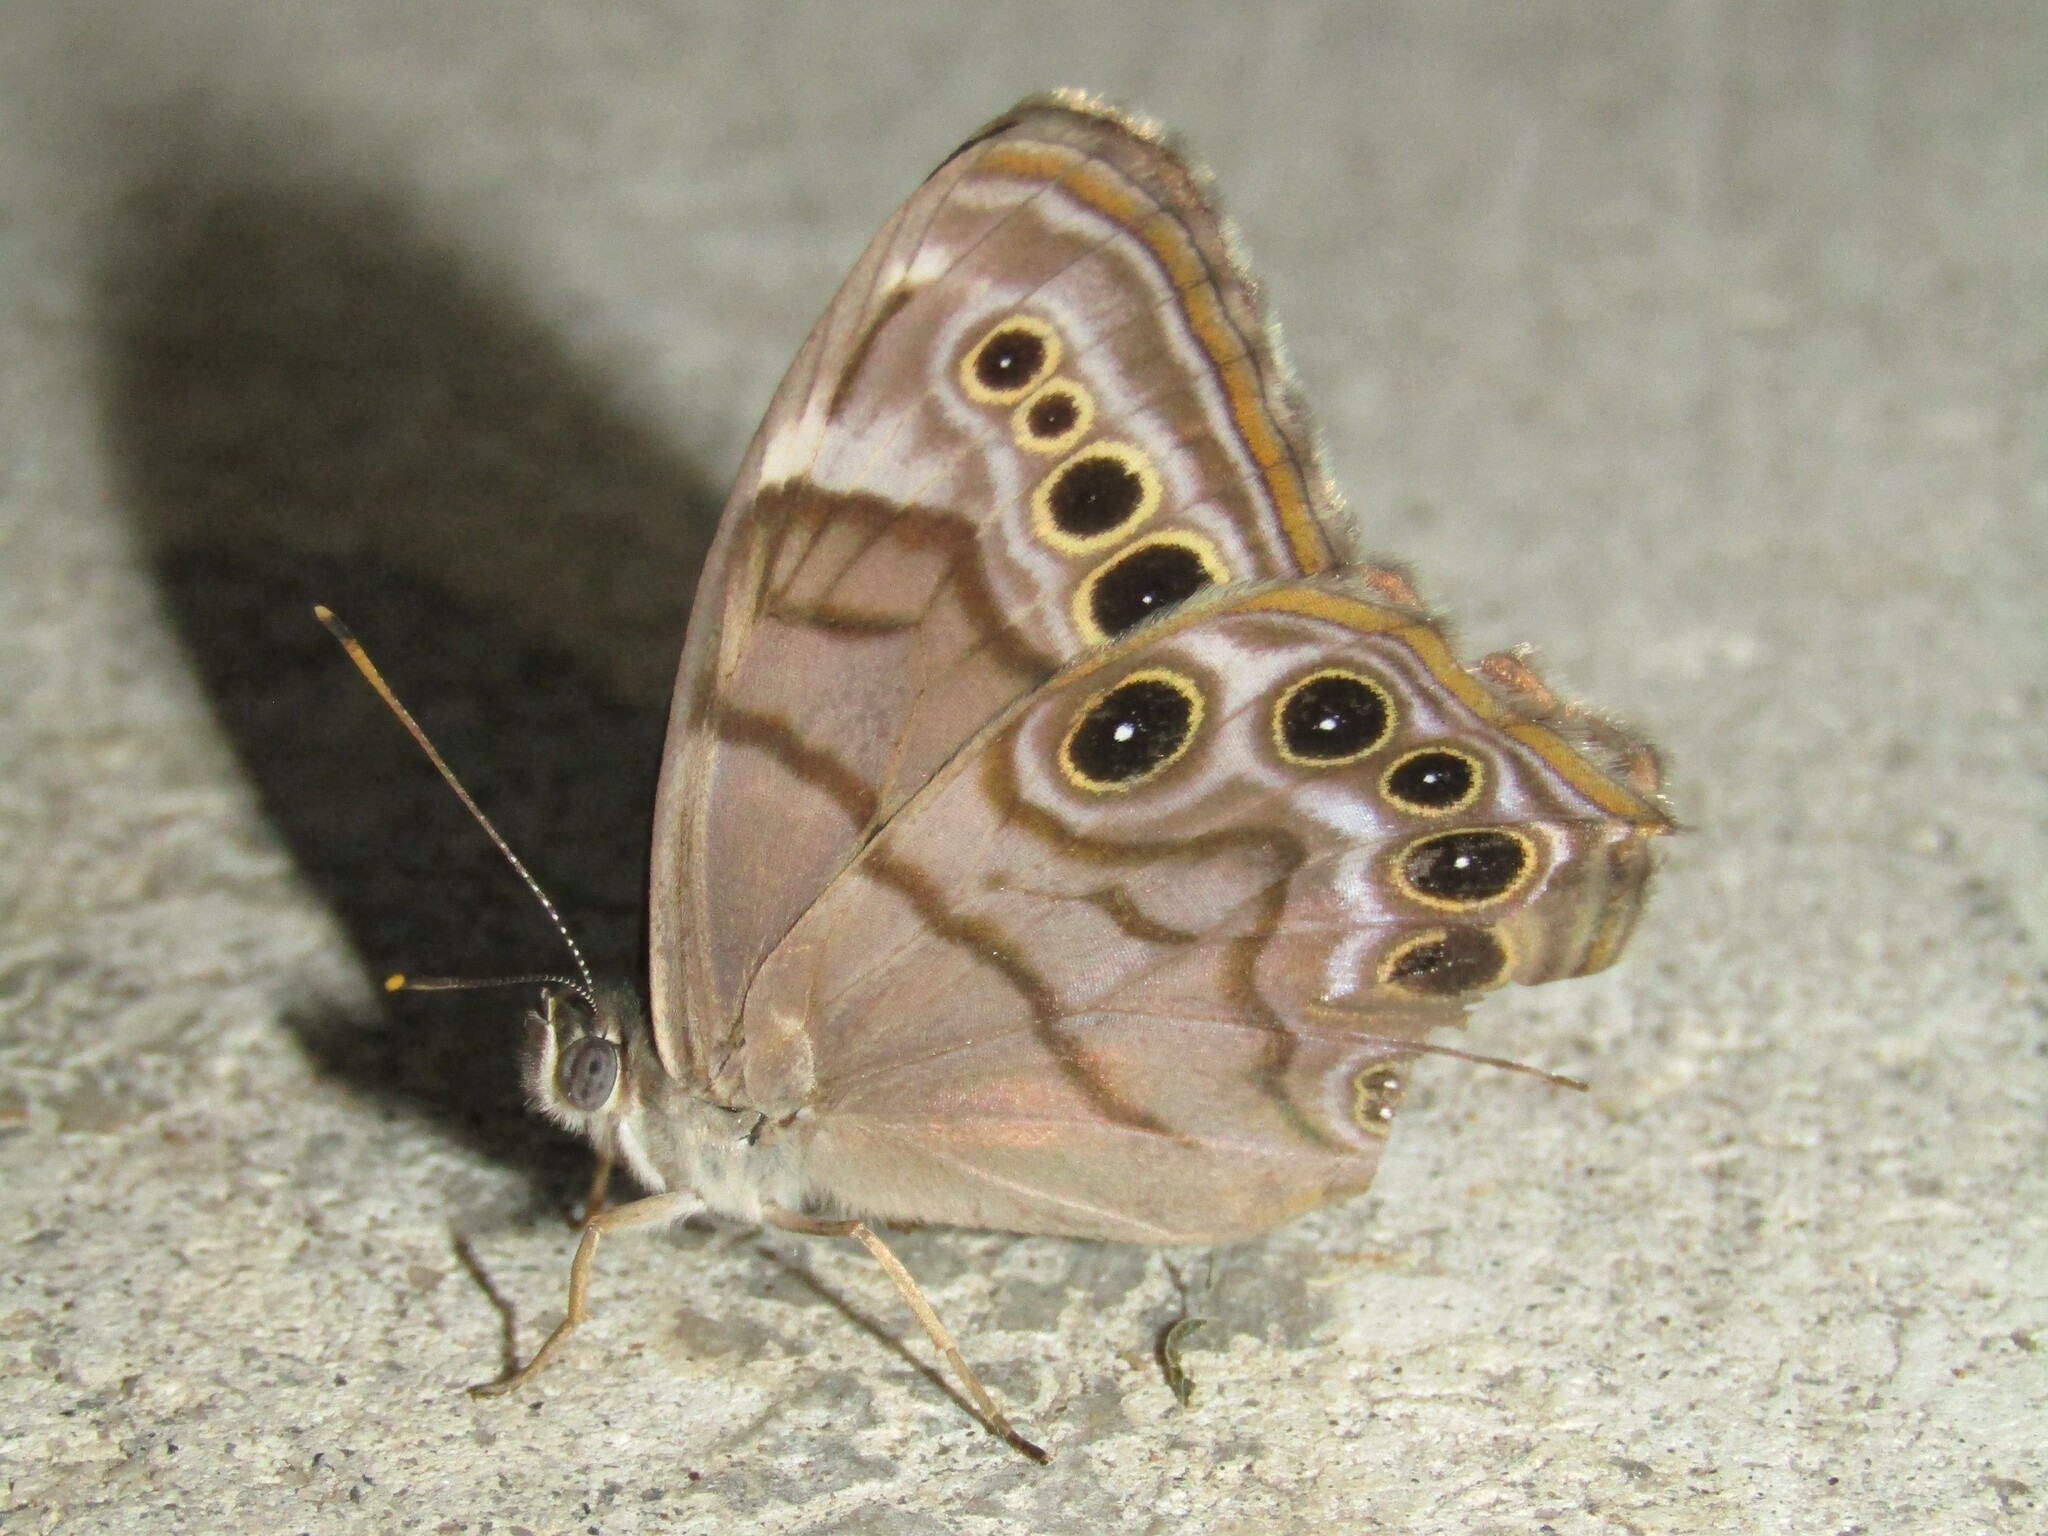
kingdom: Animalia
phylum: Arthropoda
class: Insecta
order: Lepidoptera
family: Nymphalidae
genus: Lethe
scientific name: Lethe anthedon
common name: Northern pearly-eye
